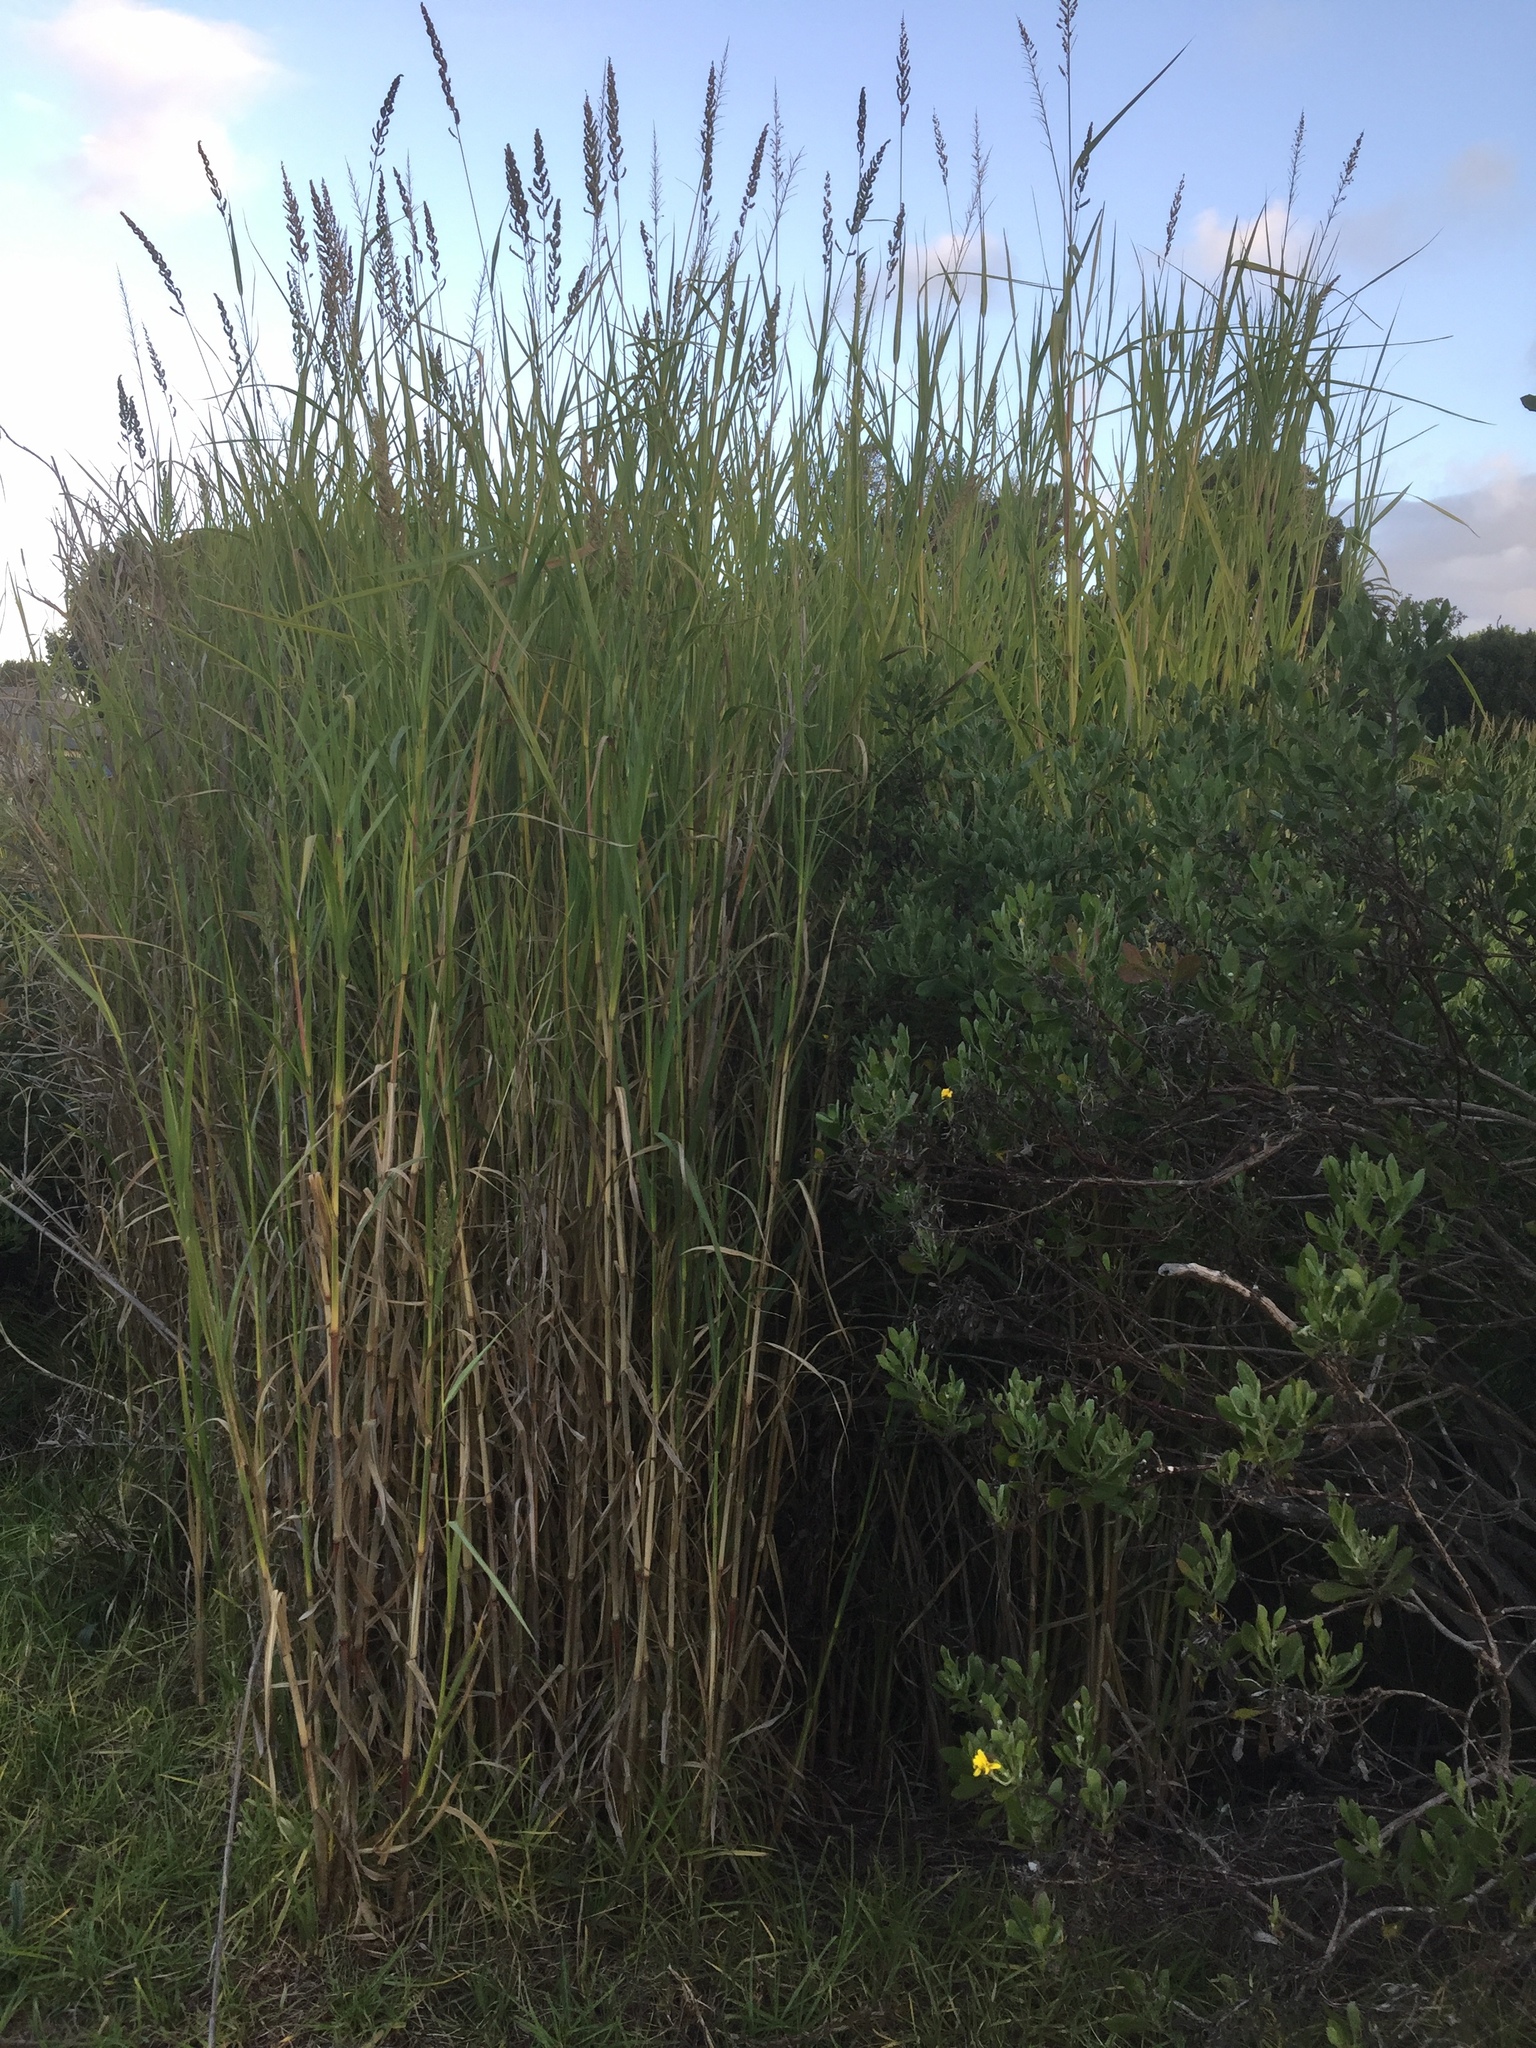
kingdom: Plantae
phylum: Tracheophyta
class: Liliopsida
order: Poales
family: Poaceae
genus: Echinochloa
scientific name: Echinochloa pyramidalis
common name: Antelope grass
